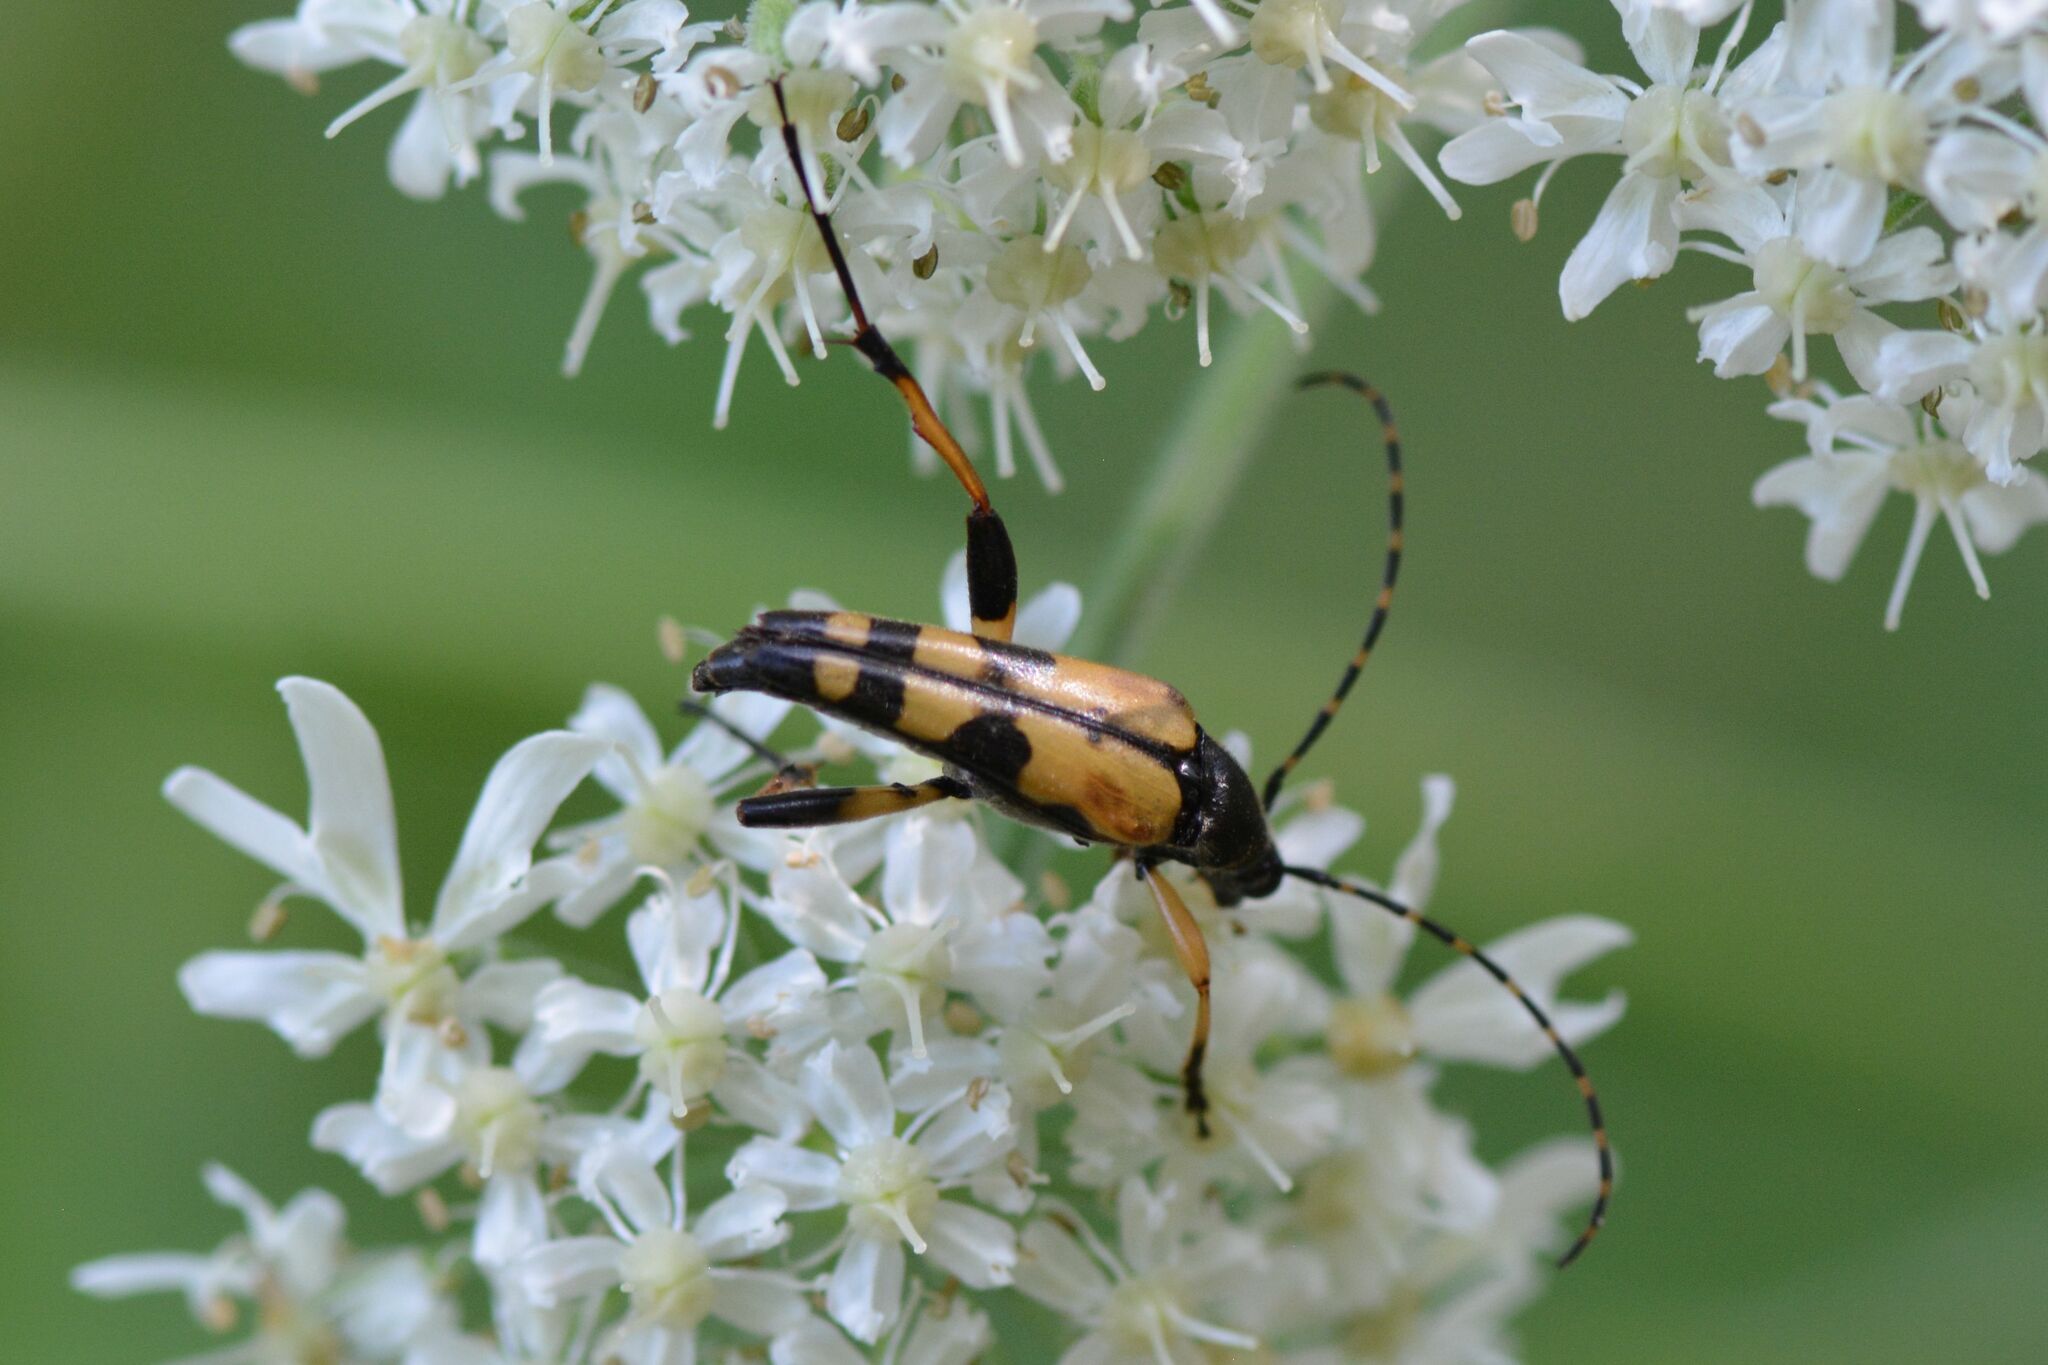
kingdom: Animalia
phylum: Arthropoda
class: Insecta
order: Coleoptera
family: Cerambycidae
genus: Rutpela
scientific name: Rutpela maculata
